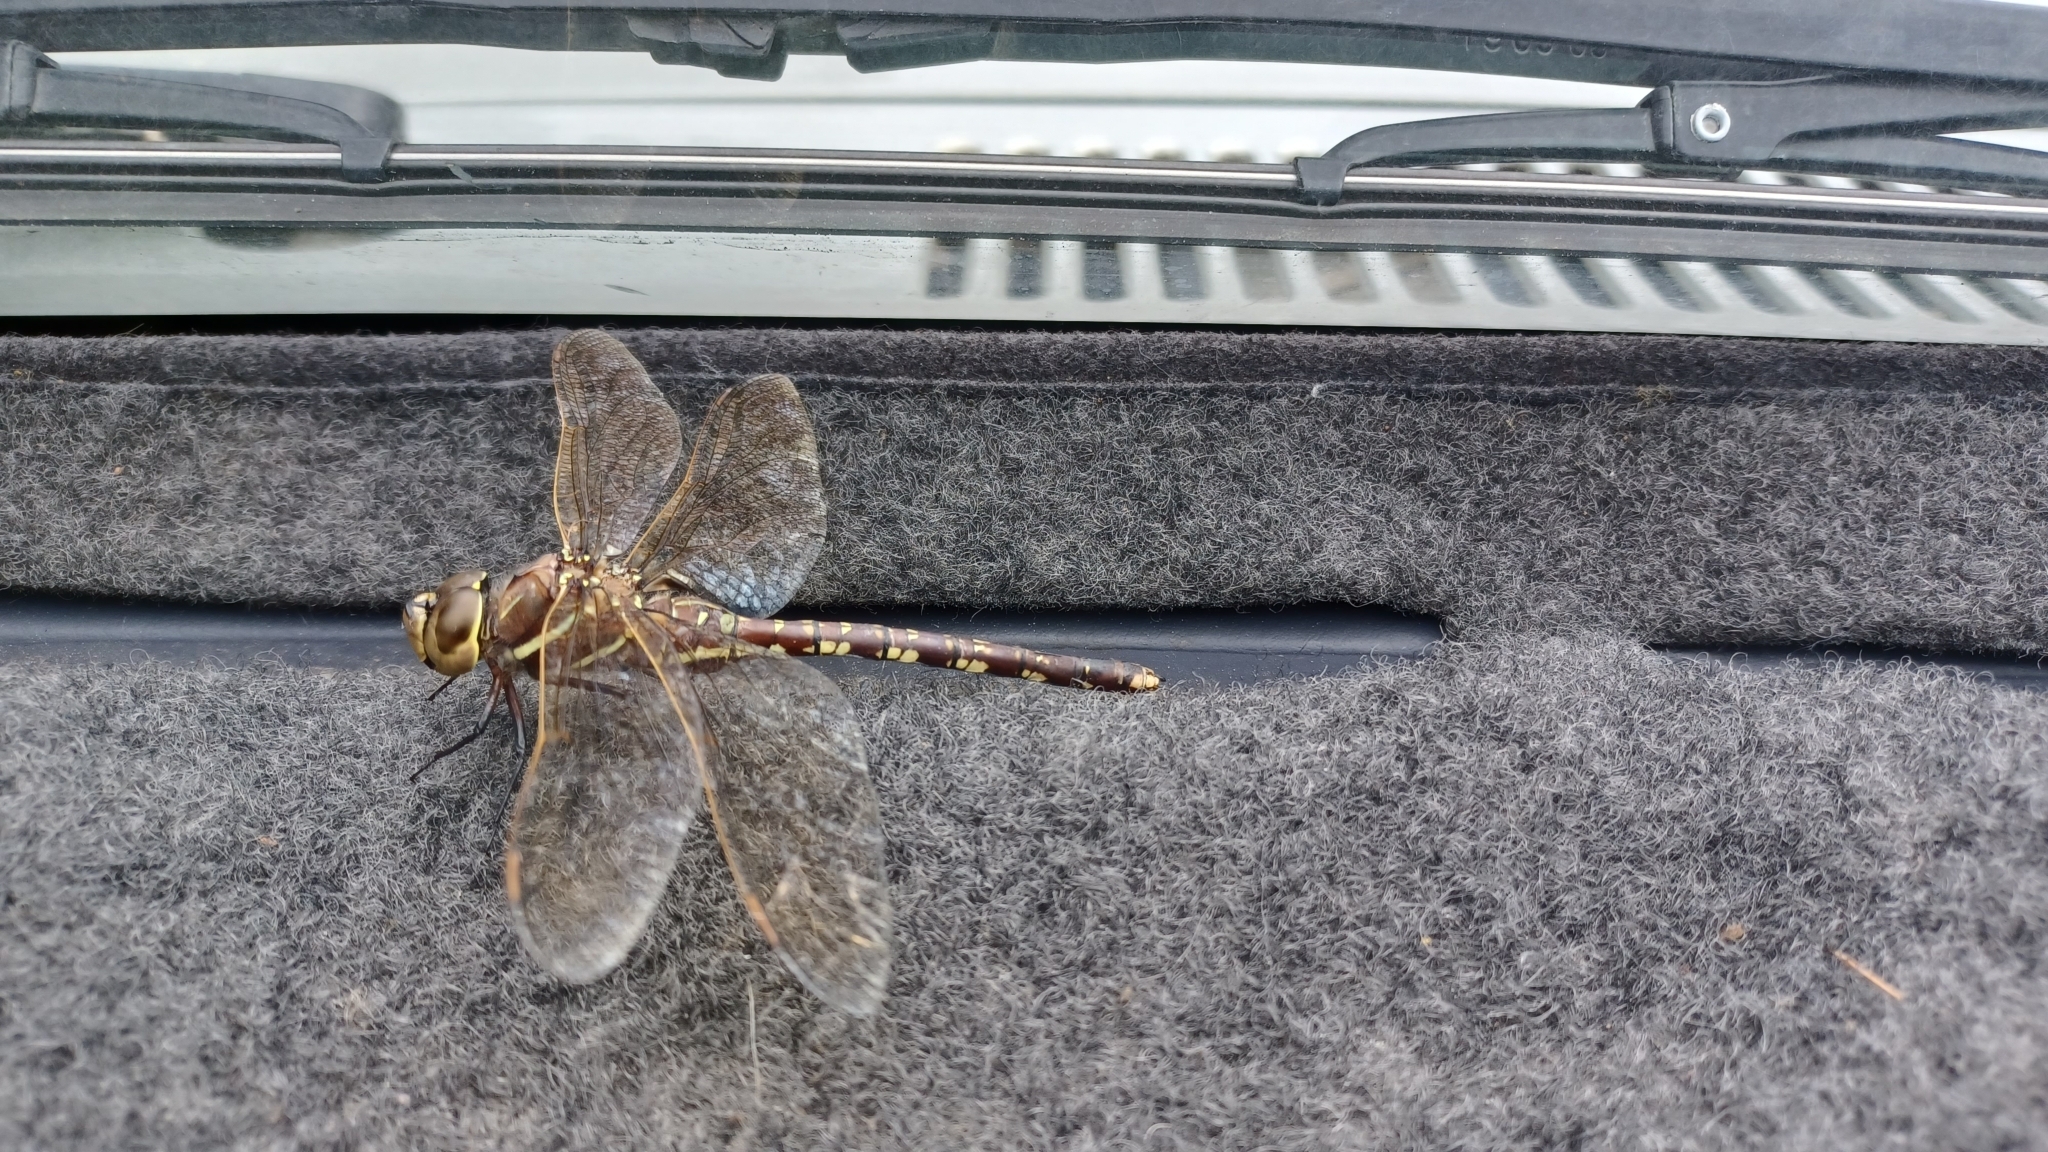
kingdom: Animalia
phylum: Arthropoda
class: Insecta
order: Odonata
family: Aeshnidae
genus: Aeshna
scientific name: Aeshna brevistyla
